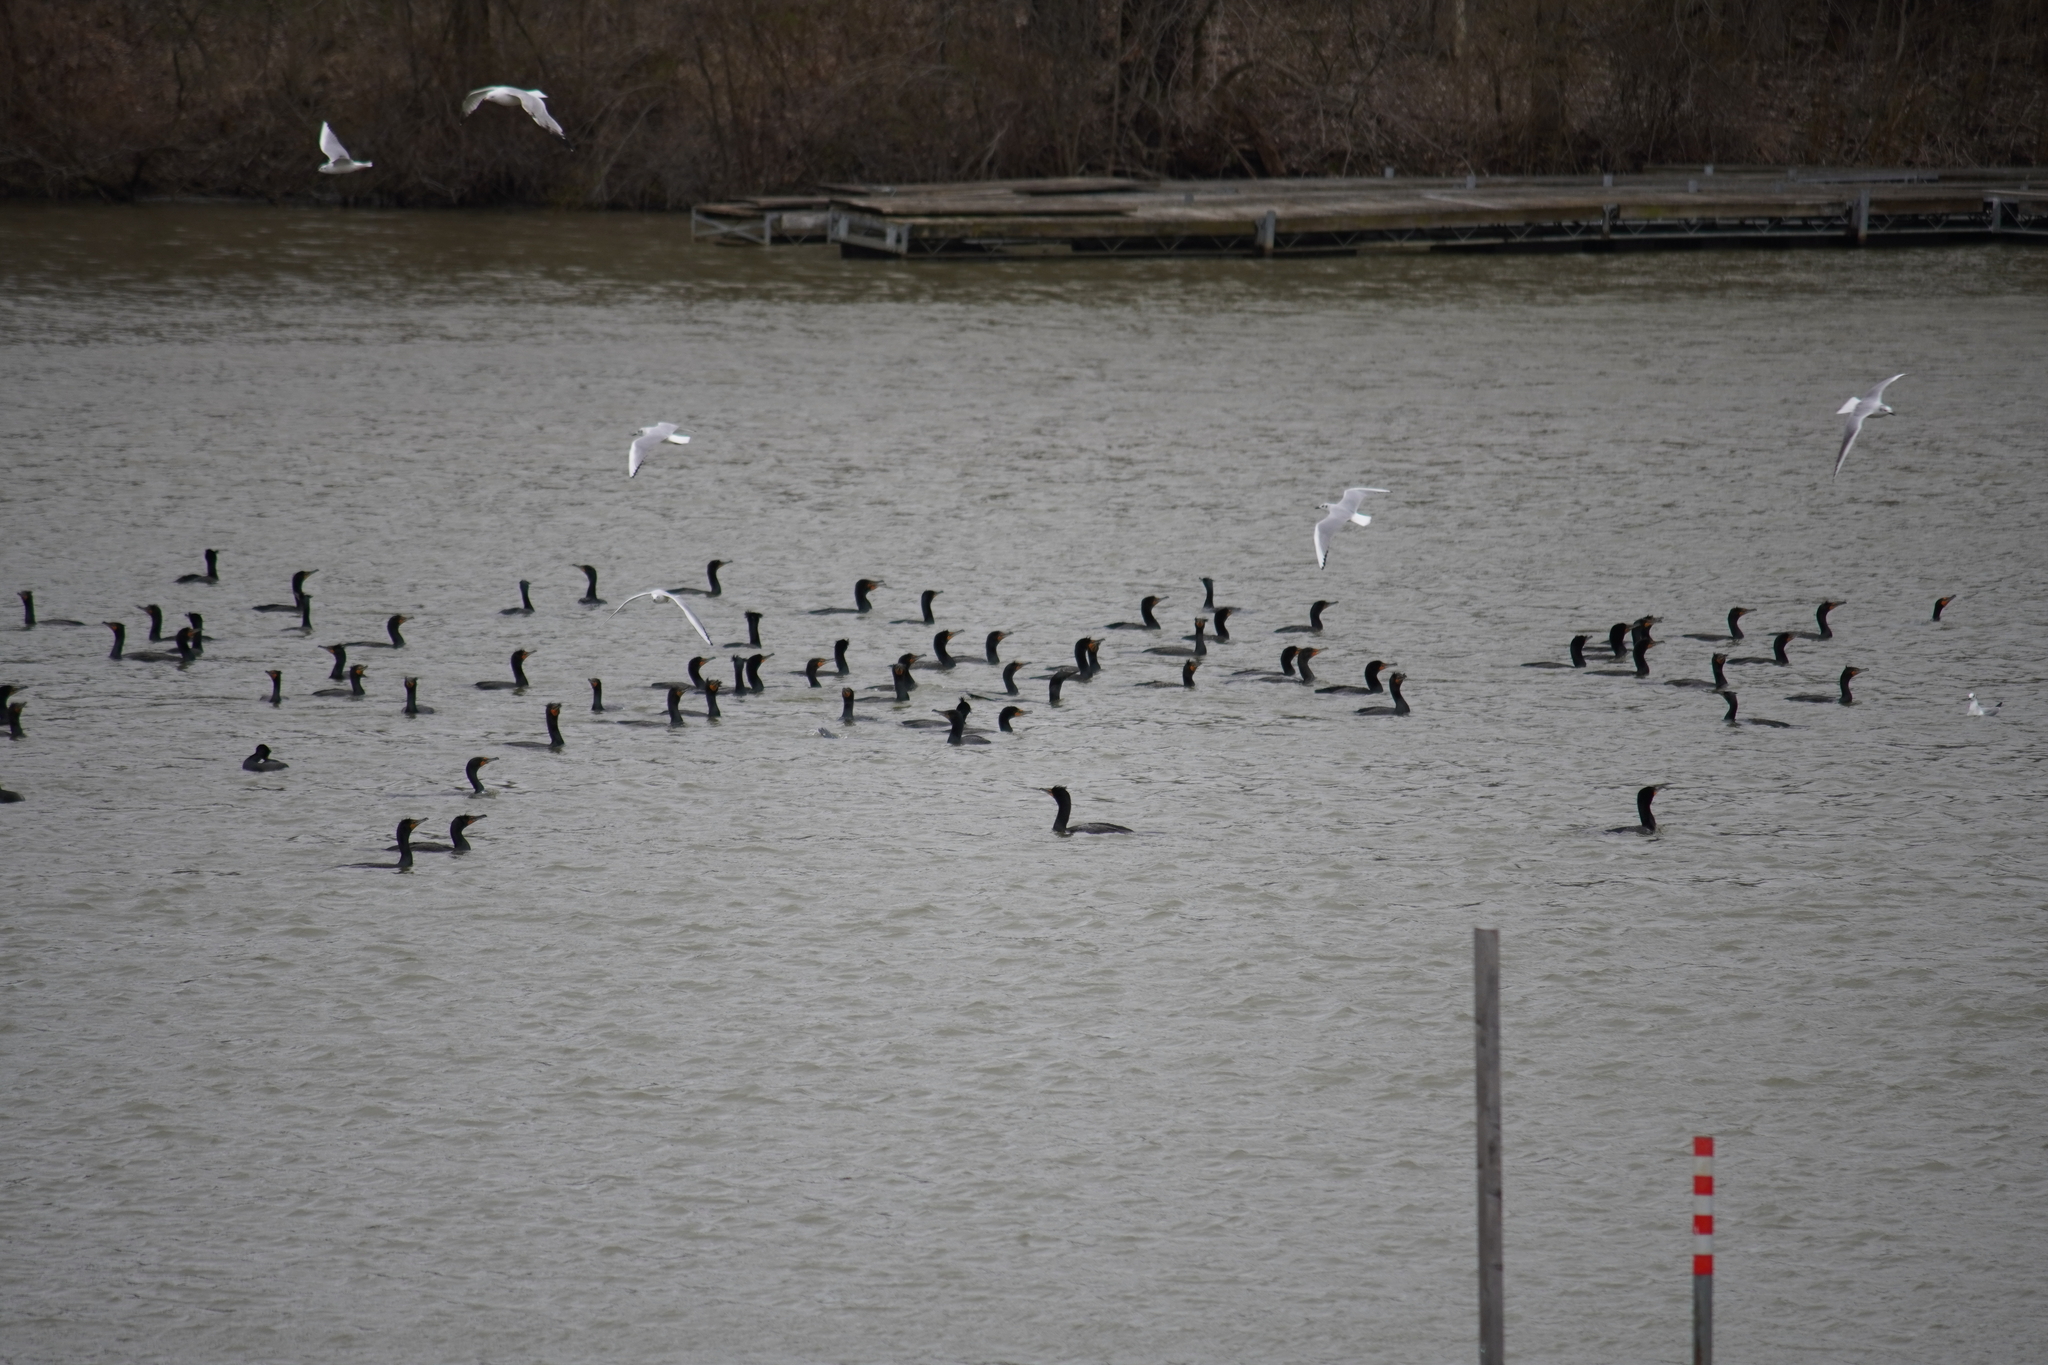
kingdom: Animalia
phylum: Chordata
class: Aves
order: Suliformes
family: Phalacrocoracidae
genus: Phalacrocorax
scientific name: Phalacrocorax auritus
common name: Double-crested cormorant
